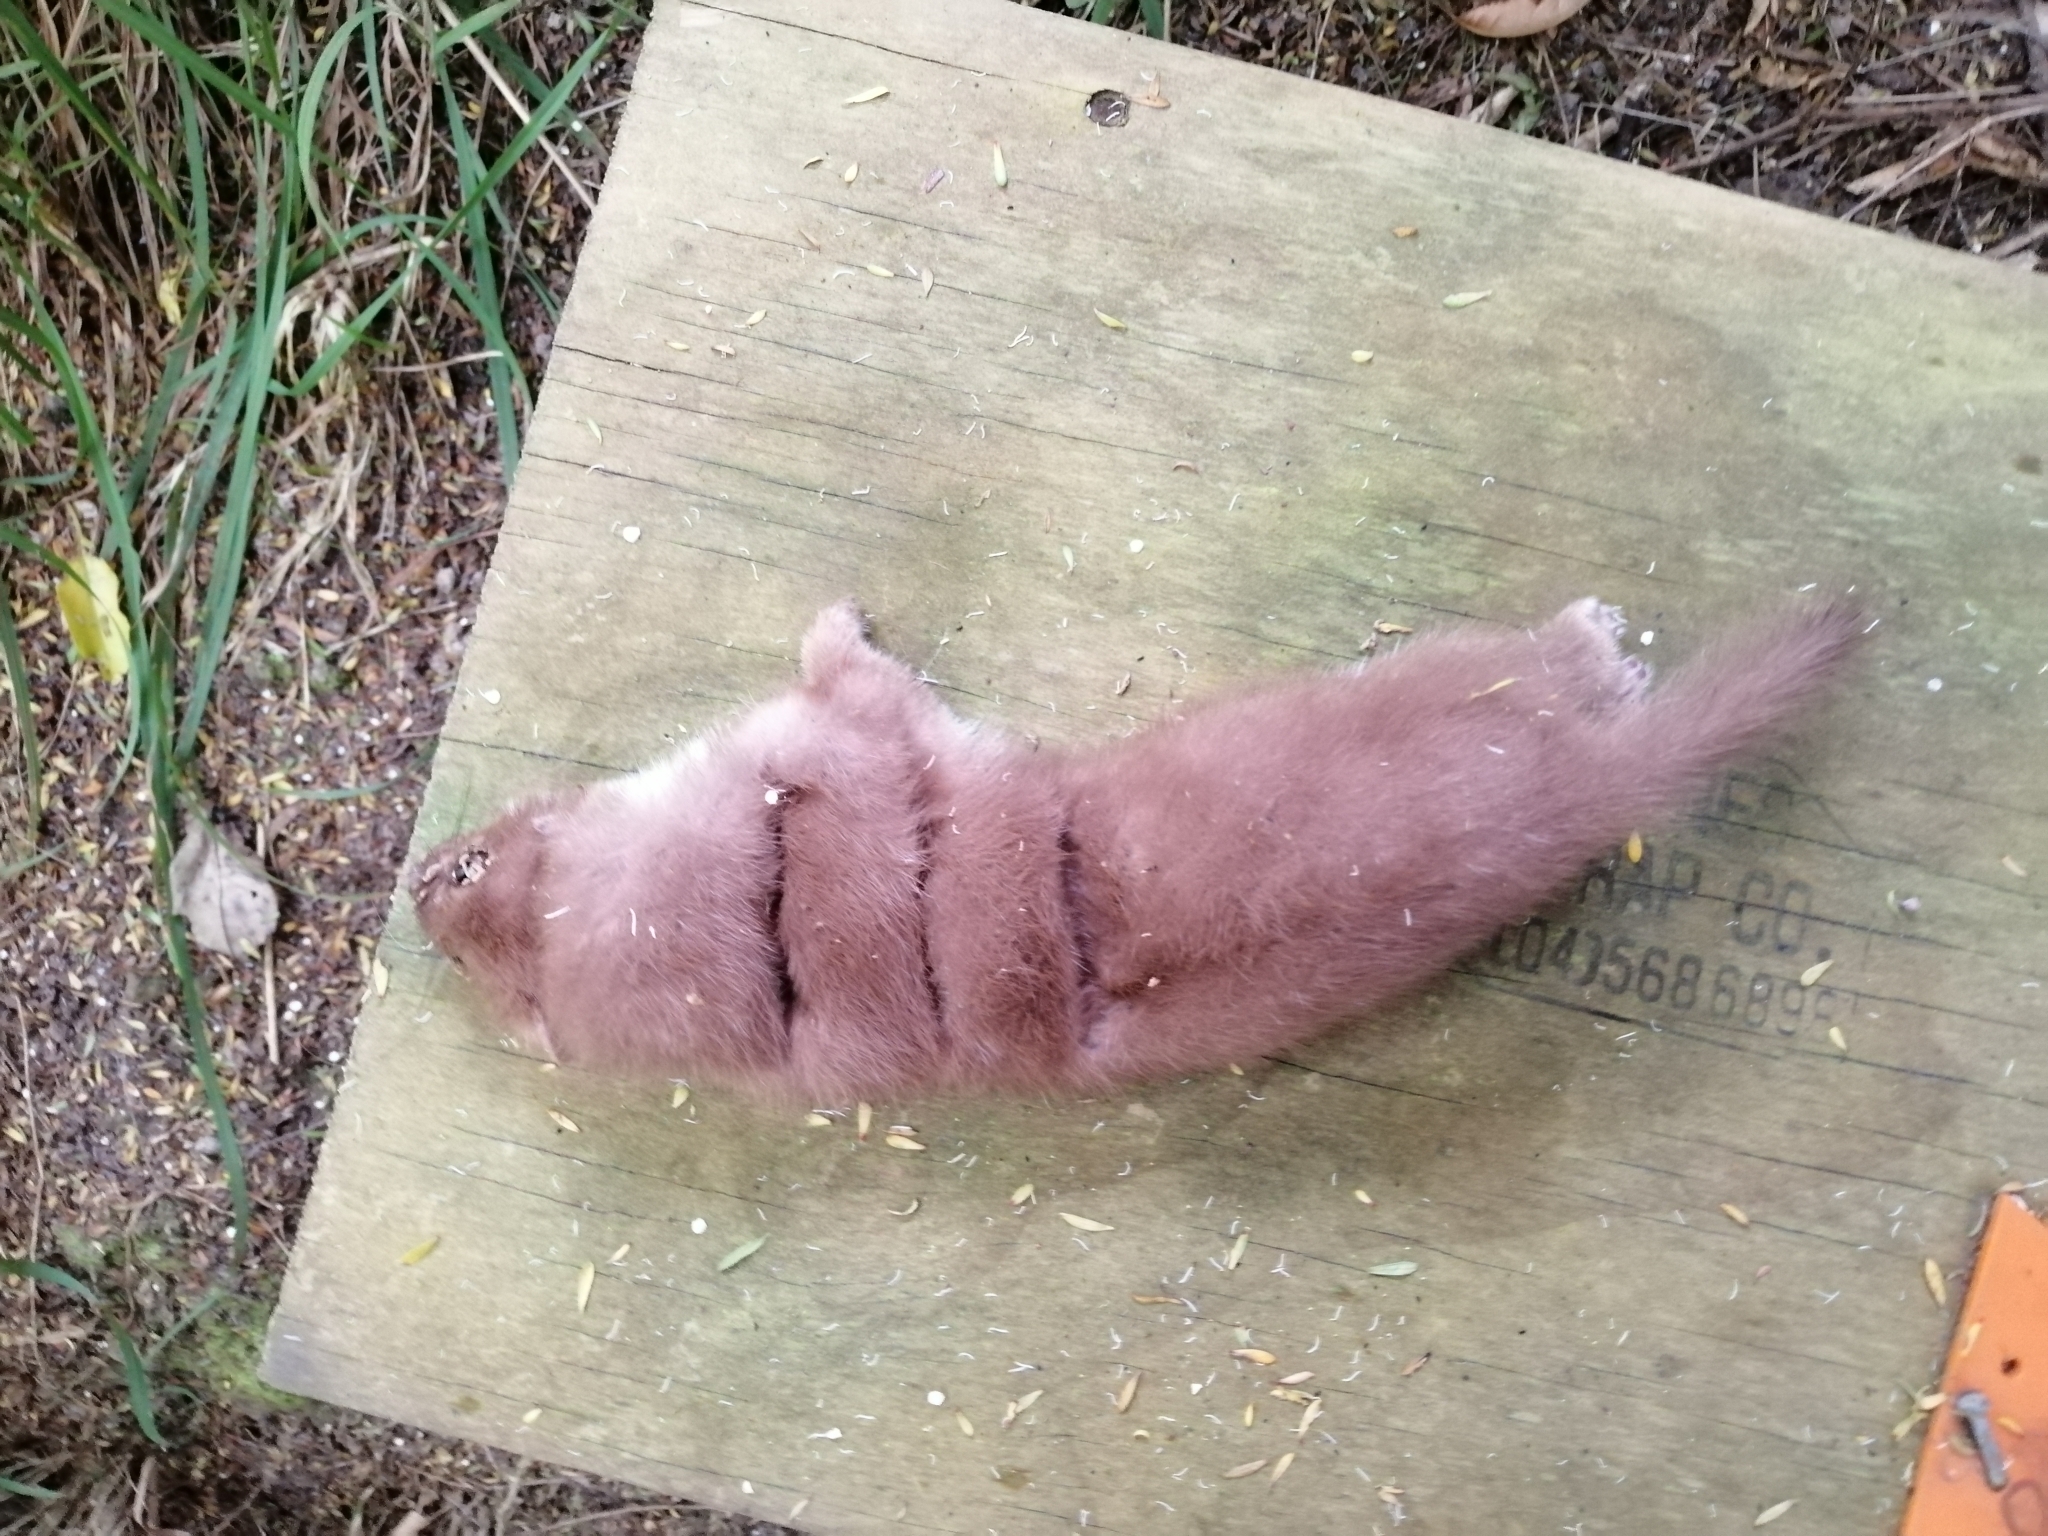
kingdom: Animalia
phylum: Chordata
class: Mammalia
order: Carnivora
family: Mustelidae
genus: Mustela
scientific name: Mustela nivalis
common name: Least weasel
